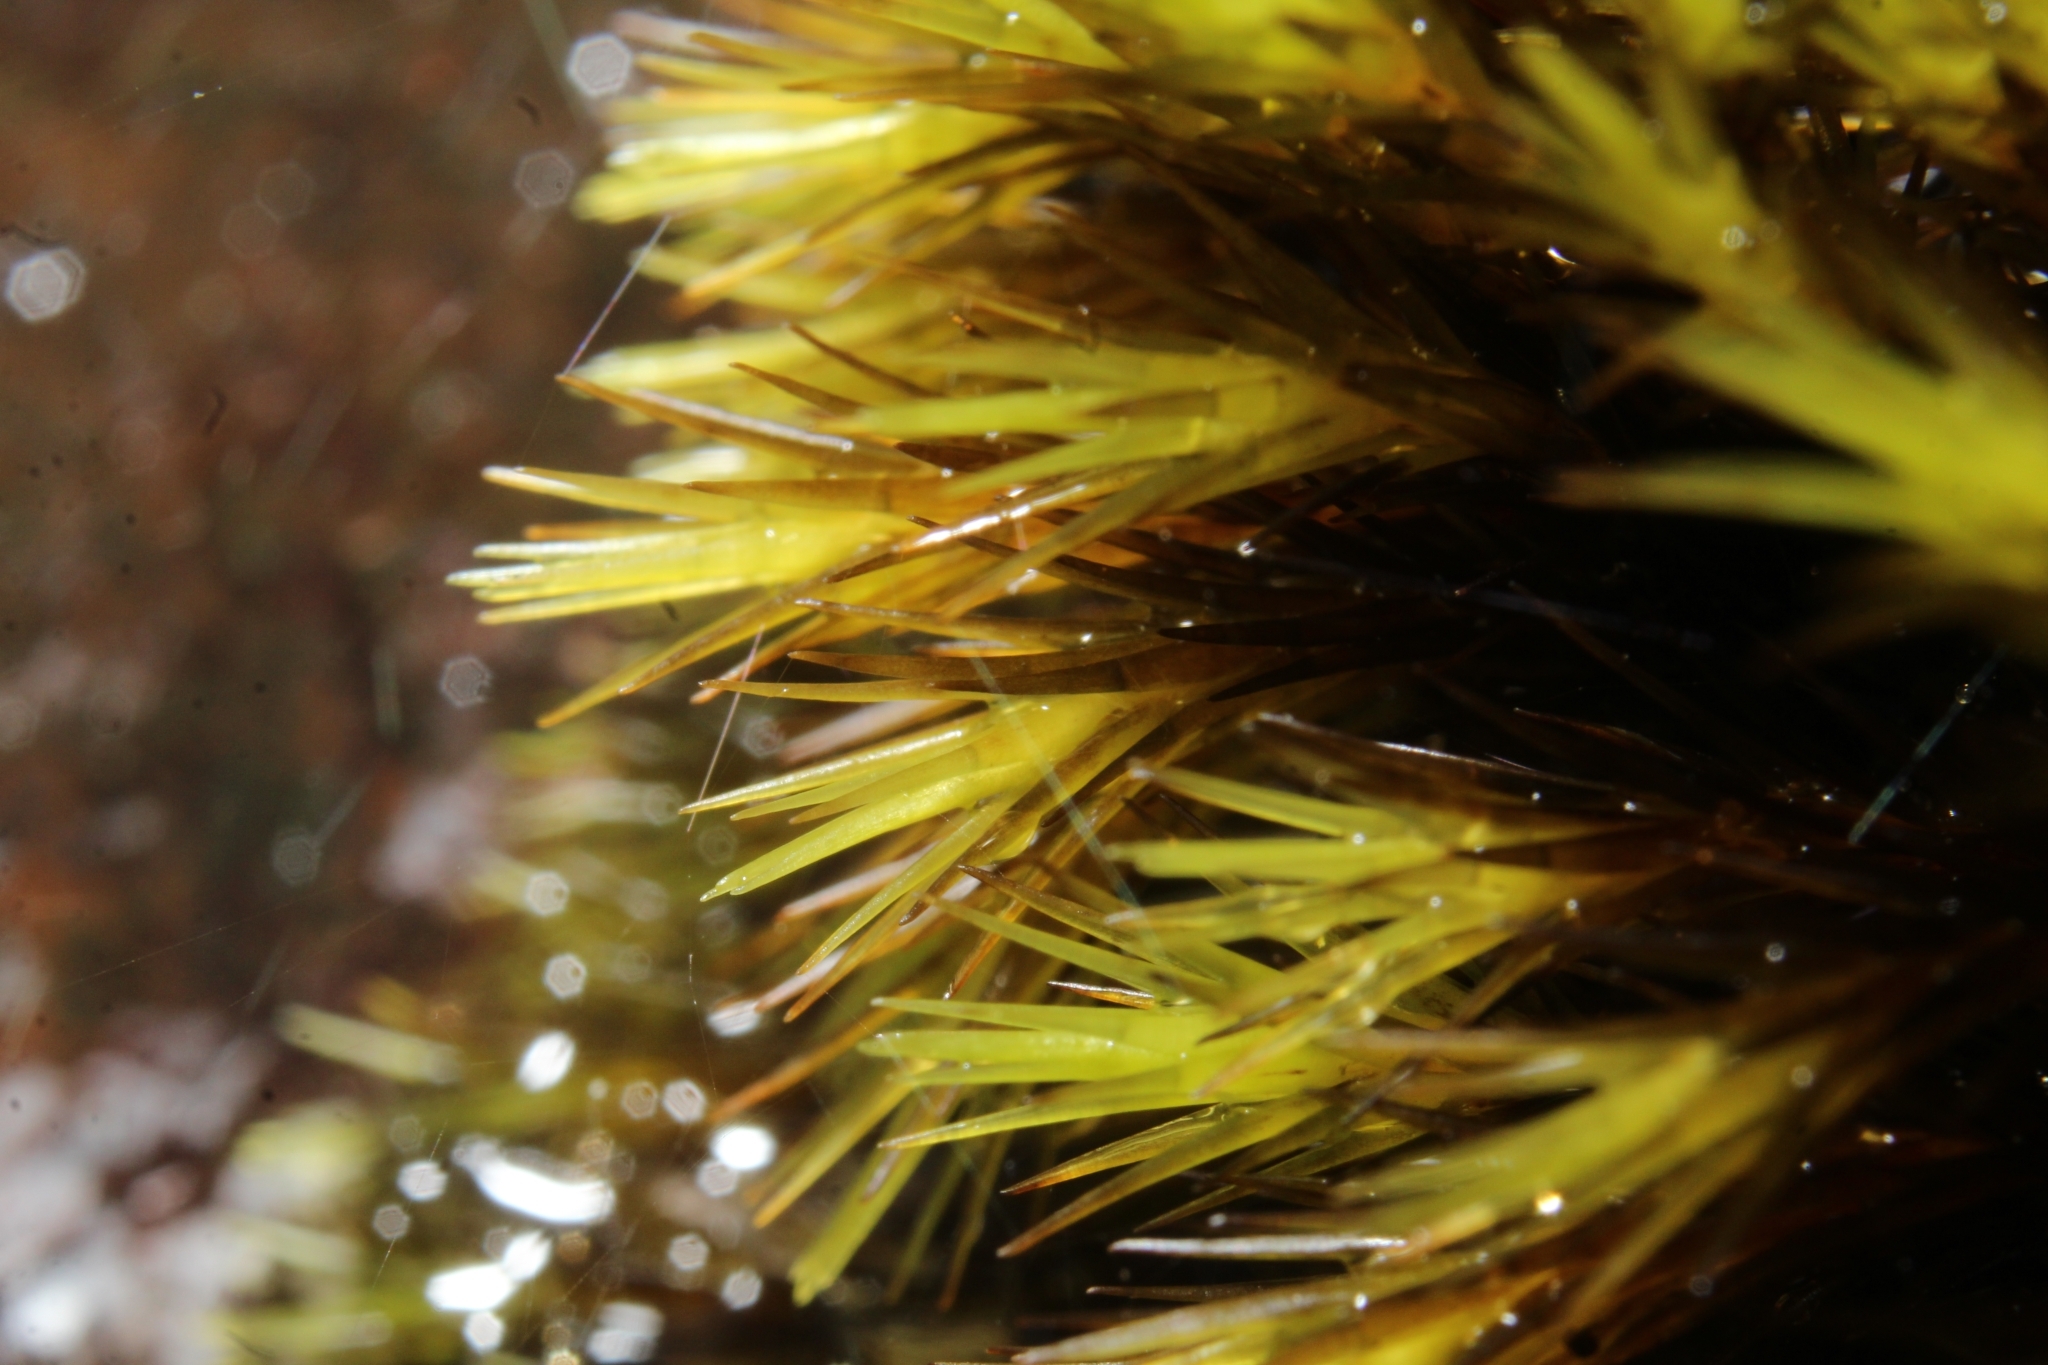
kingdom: Plantae
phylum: Bryophyta
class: Bryopsida
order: Dicranales
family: Leucobryaceae
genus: Campylopus
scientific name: Campylopus bicolor
